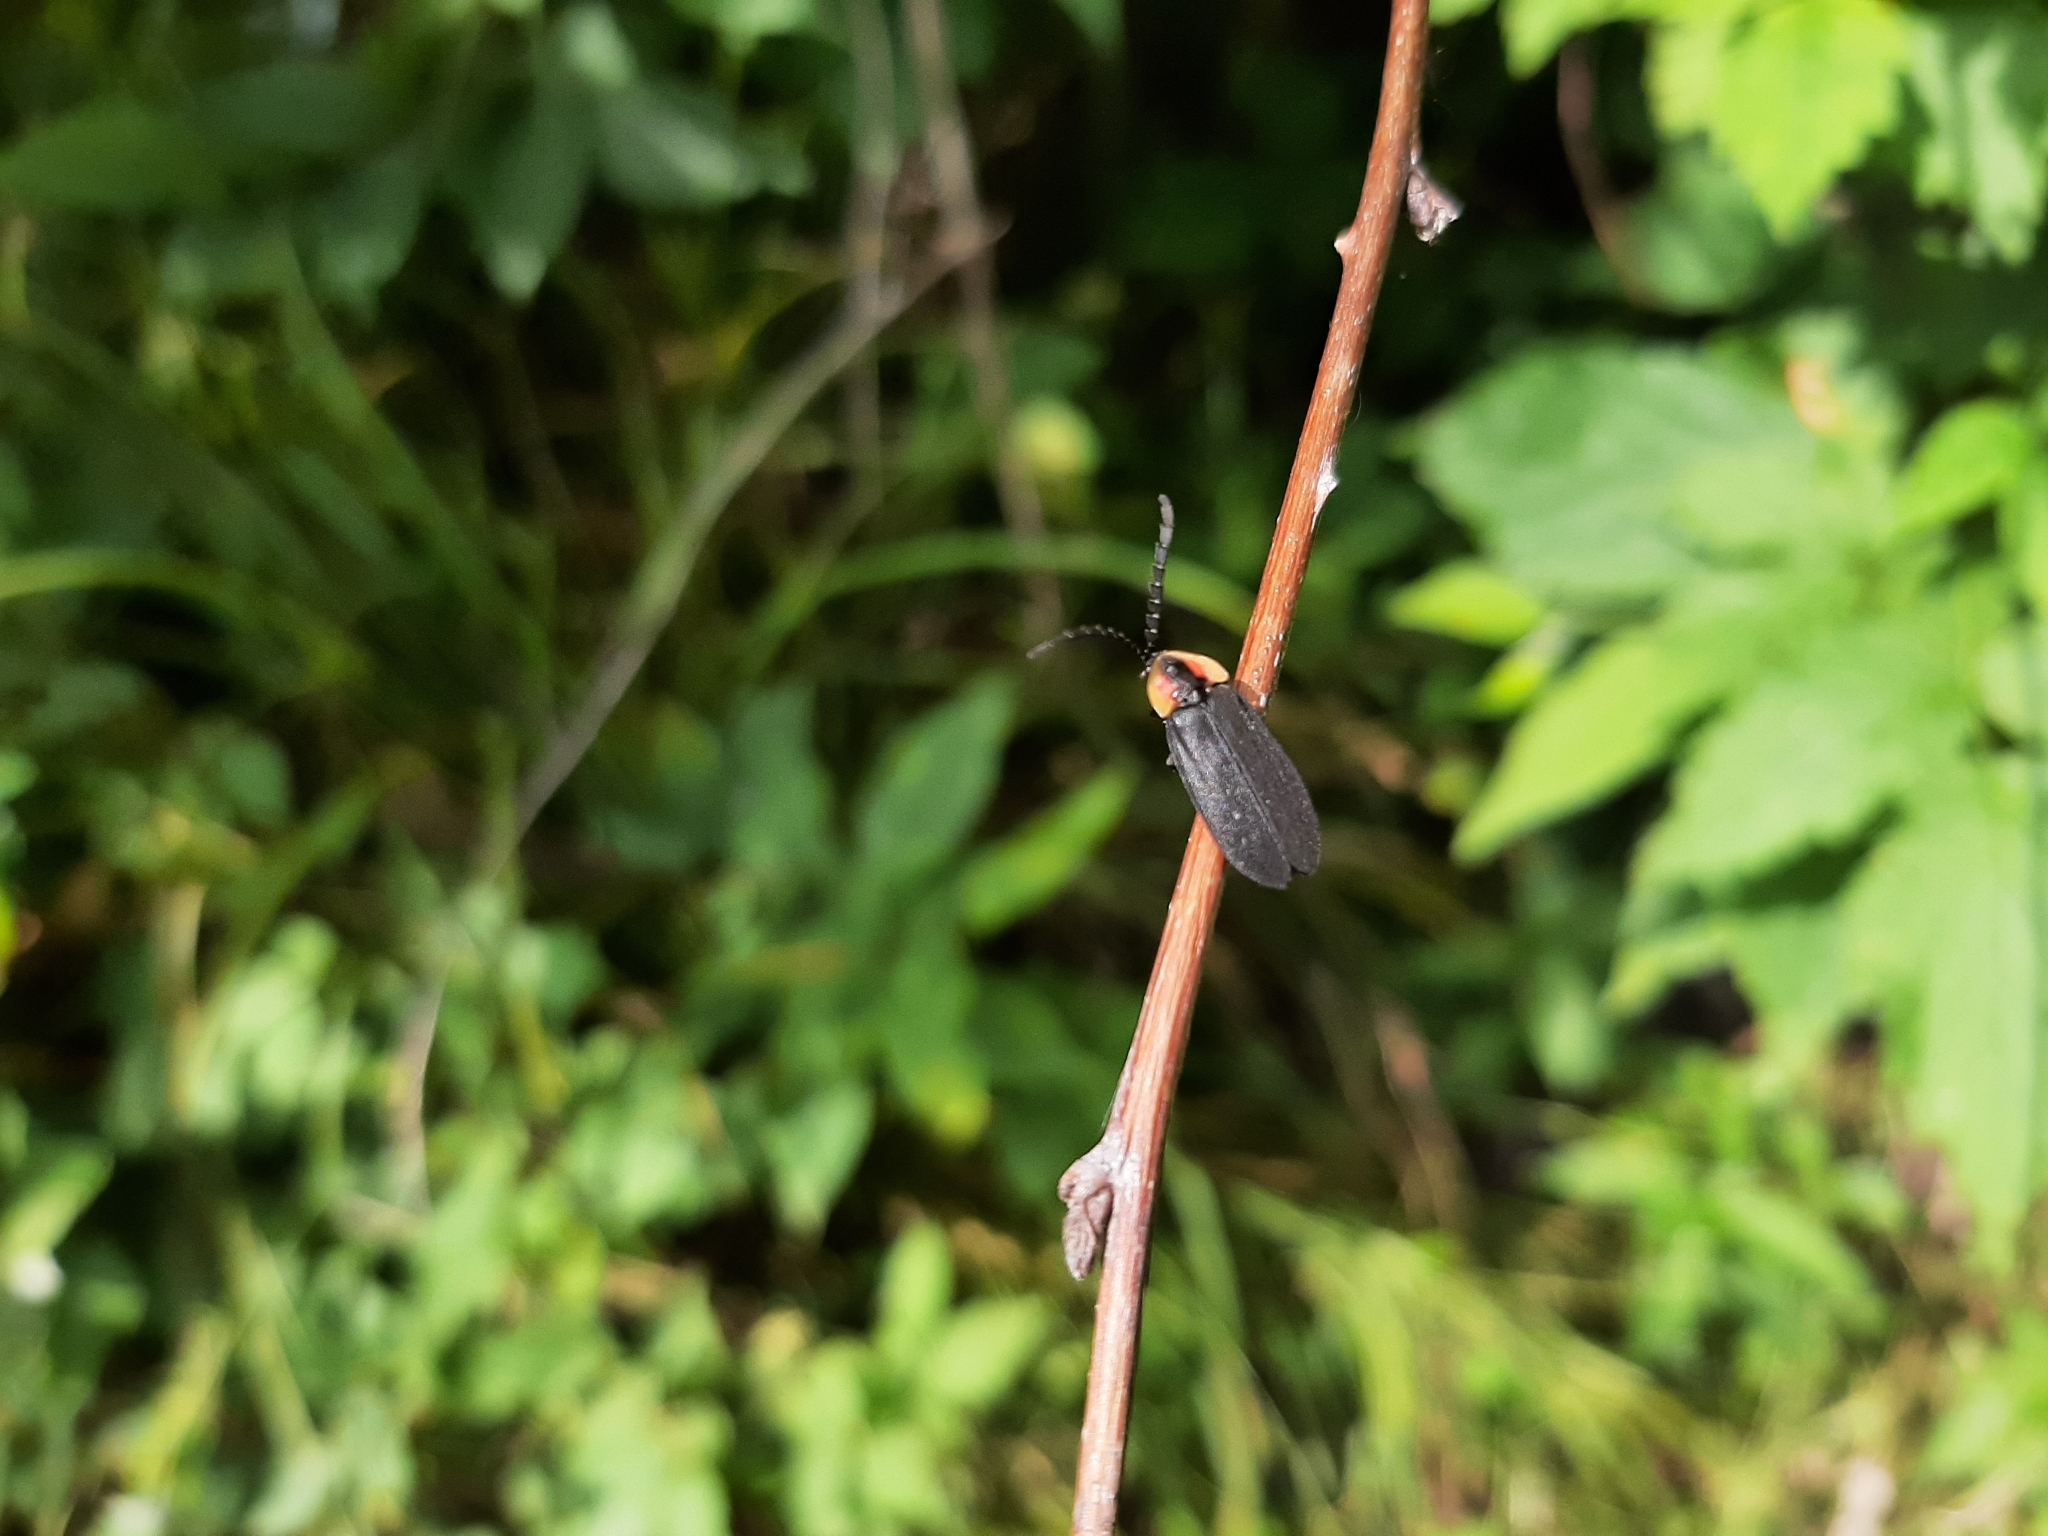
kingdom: Animalia
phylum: Arthropoda
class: Insecta
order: Coleoptera
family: Lampyridae
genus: Lucidota
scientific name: Lucidota atra
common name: Black firefly
